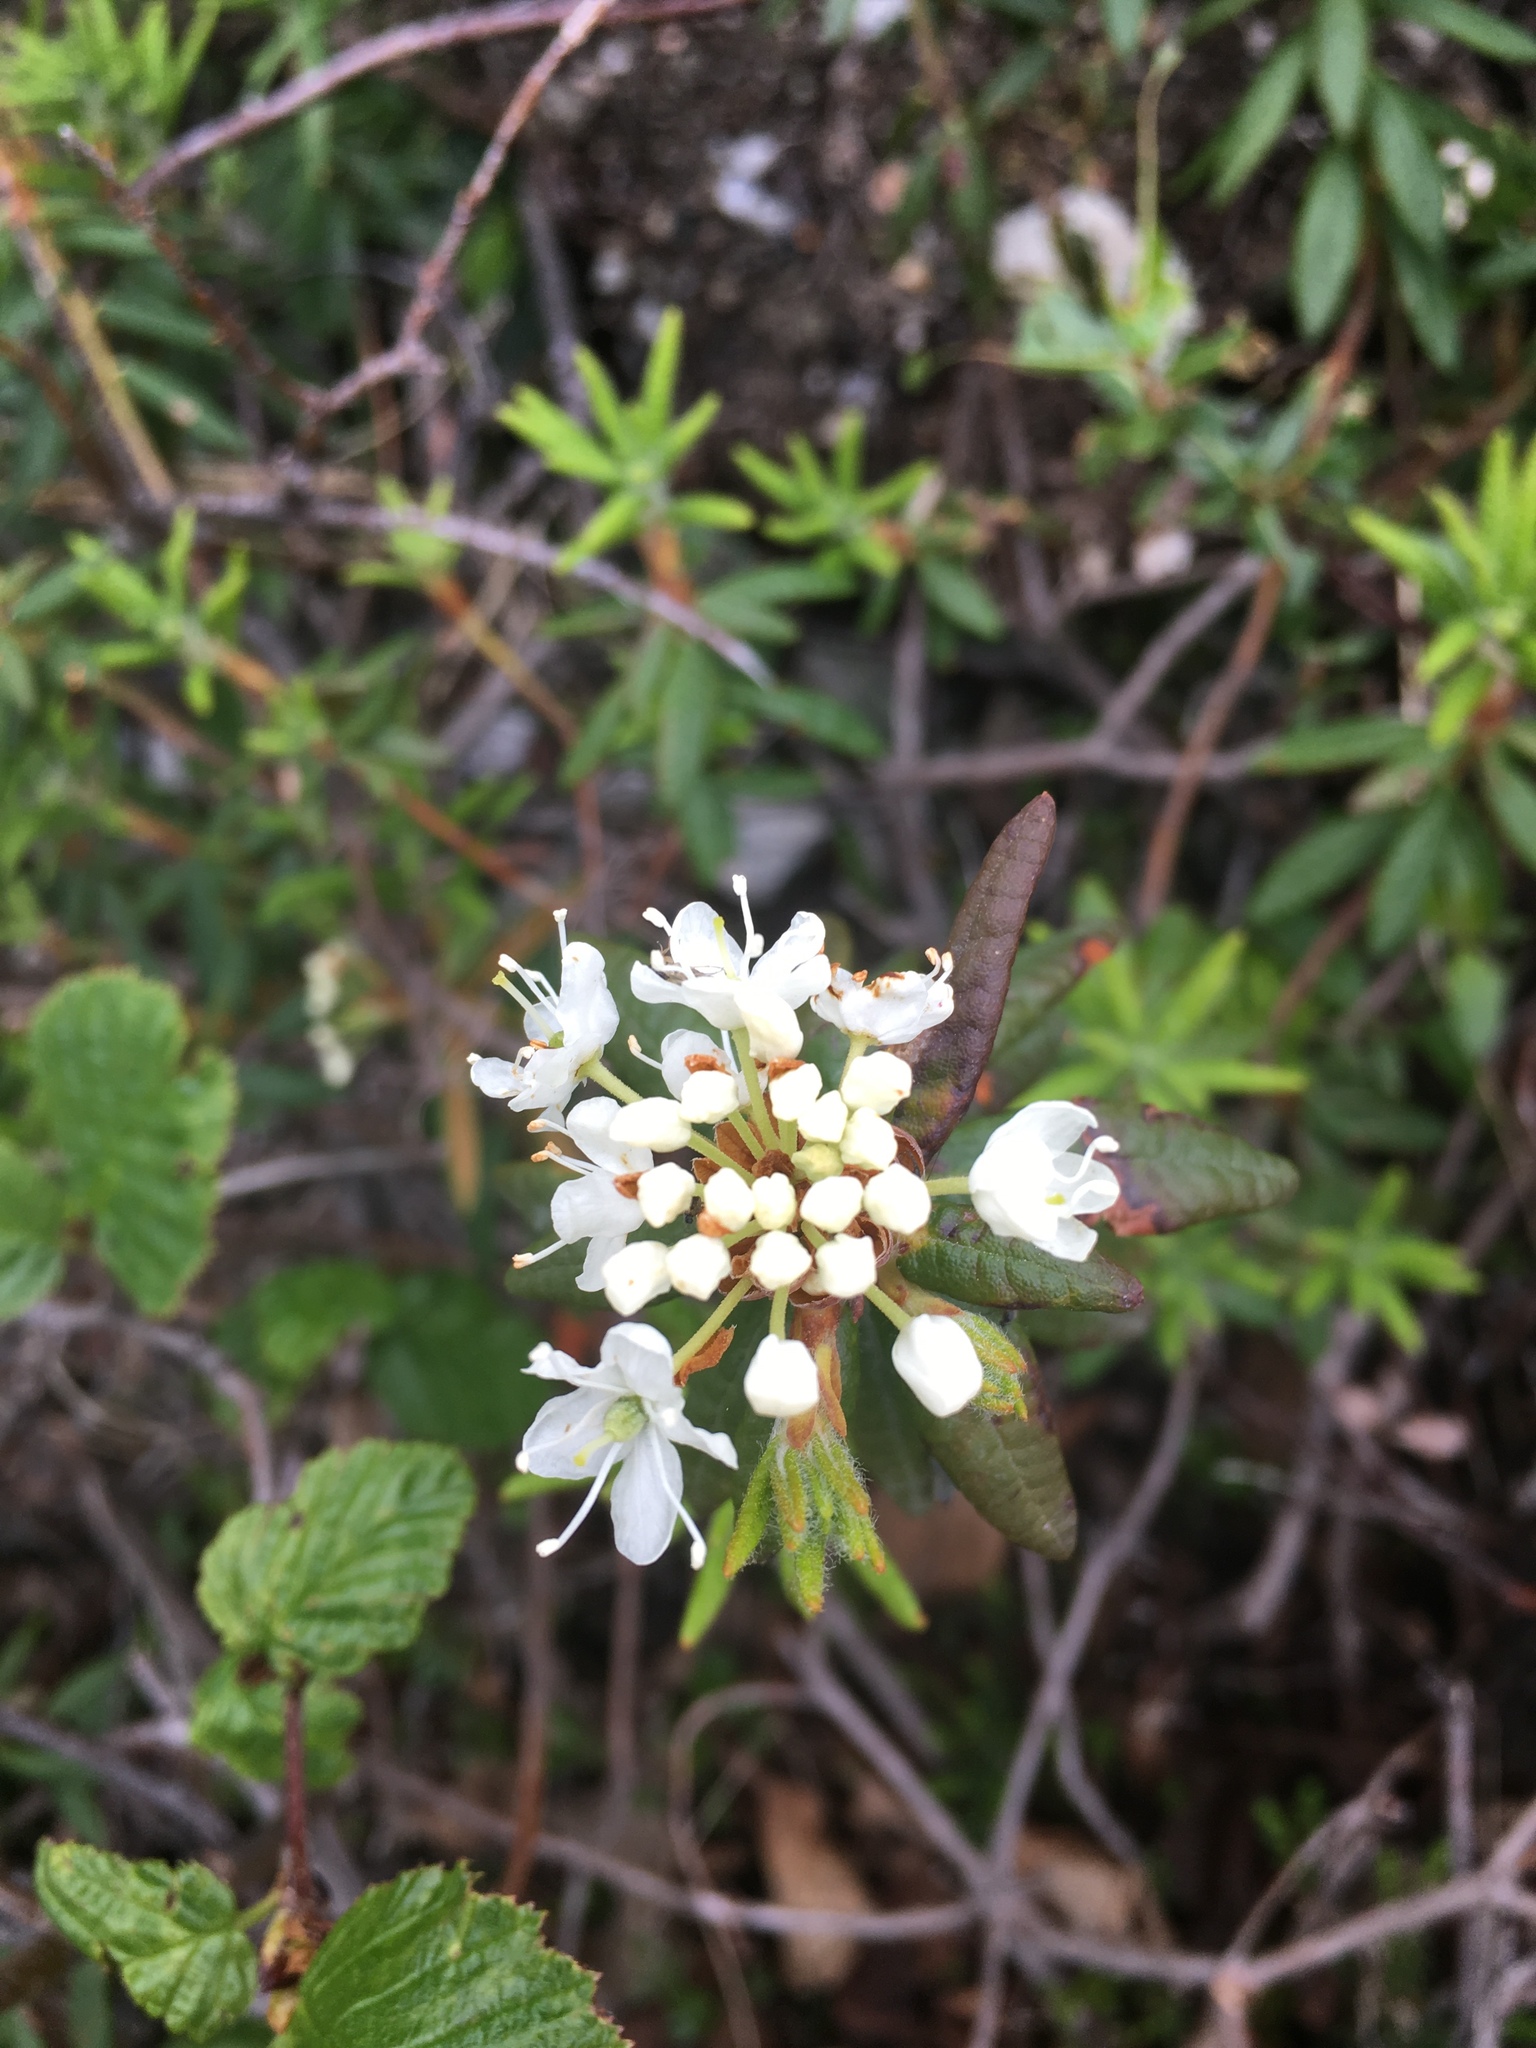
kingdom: Plantae
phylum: Tracheophyta
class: Magnoliopsida
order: Ericales
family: Ericaceae
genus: Rhododendron
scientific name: Rhododendron groenlandicum
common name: Bog labrador tea
